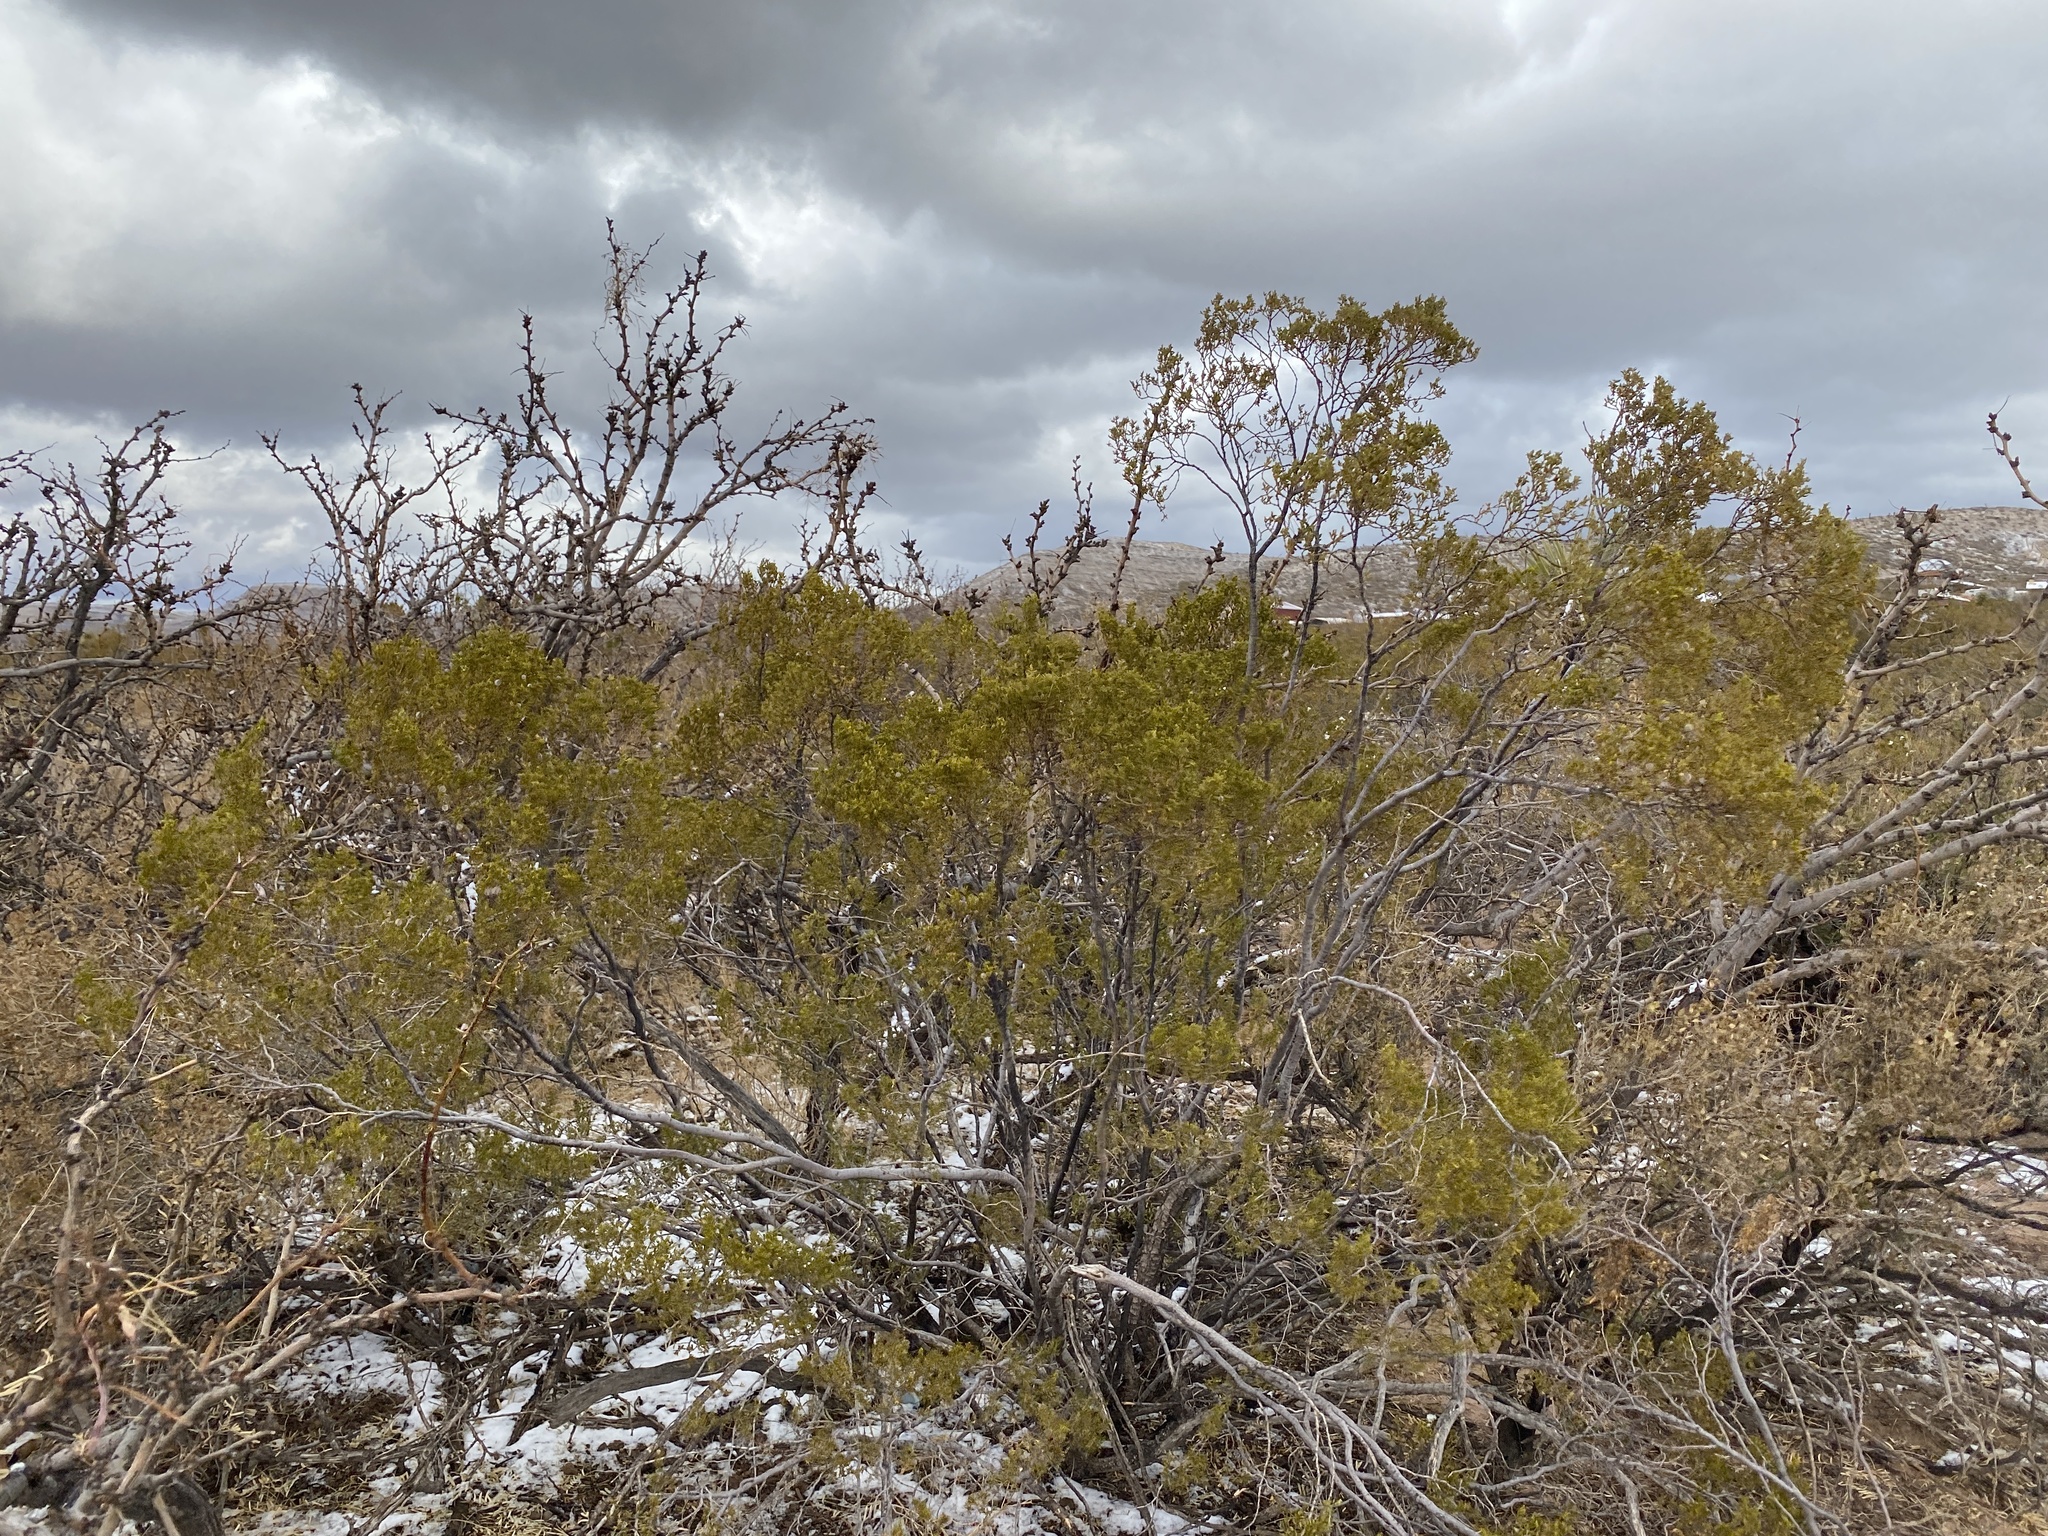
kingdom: Plantae
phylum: Tracheophyta
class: Magnoliopsida
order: Zygophyllales
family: Zygophyllaceae
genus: Larrea
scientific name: Larrea tridentata
